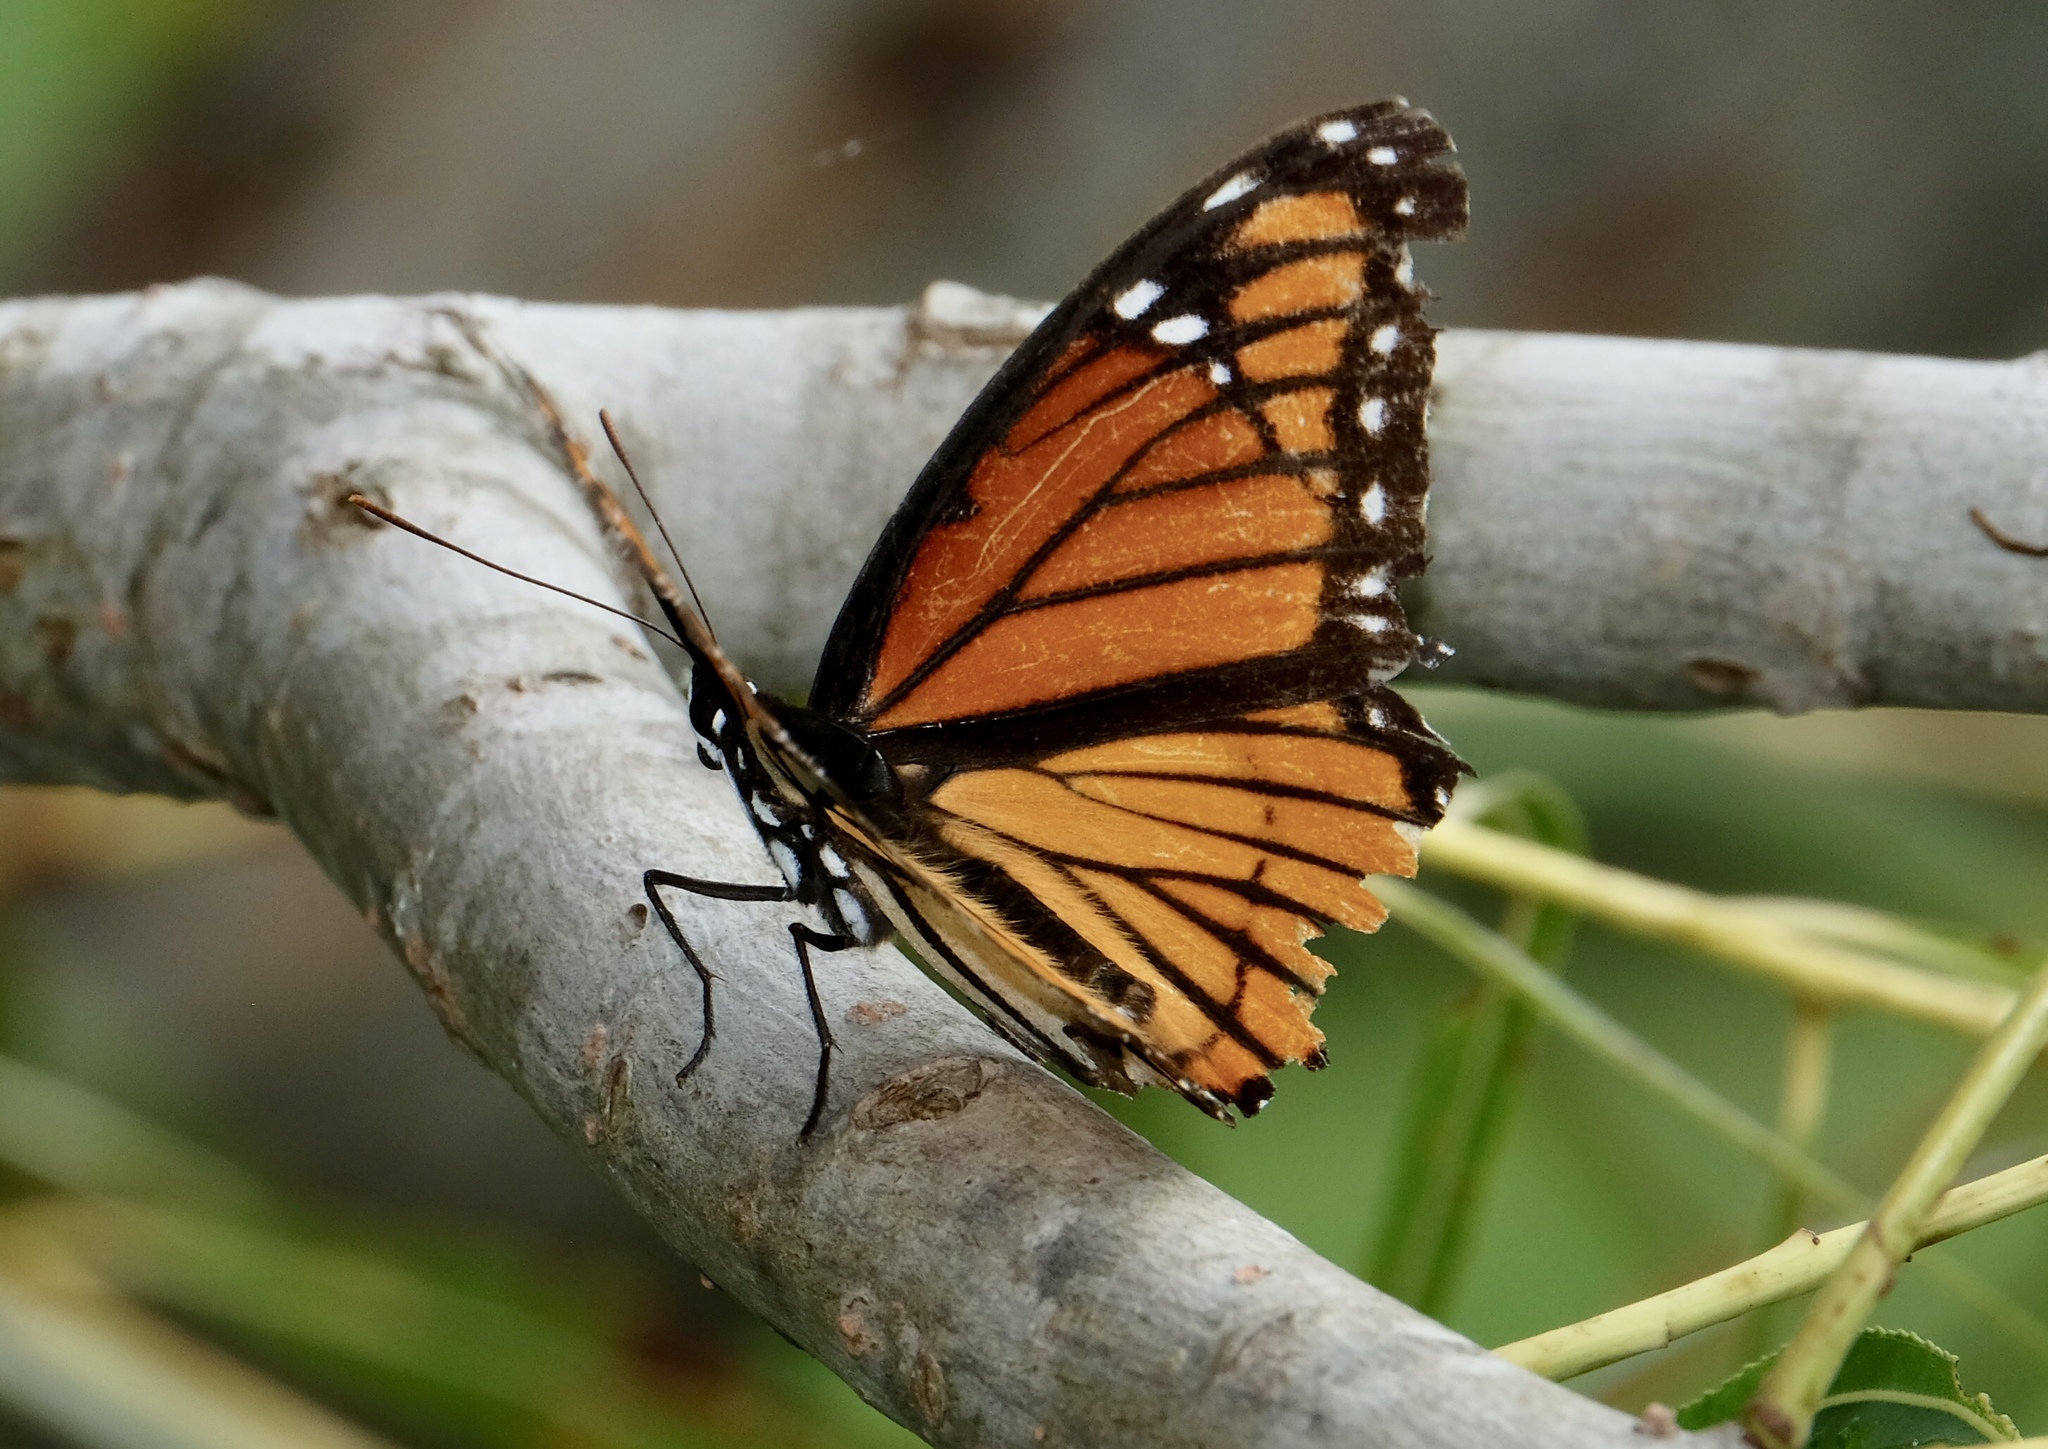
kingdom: Animalia
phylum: Arthropoda
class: Insecta
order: Lepidoptera
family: Nymphalidae
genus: Limenitis
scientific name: Limenitis archippus
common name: Viceroy
